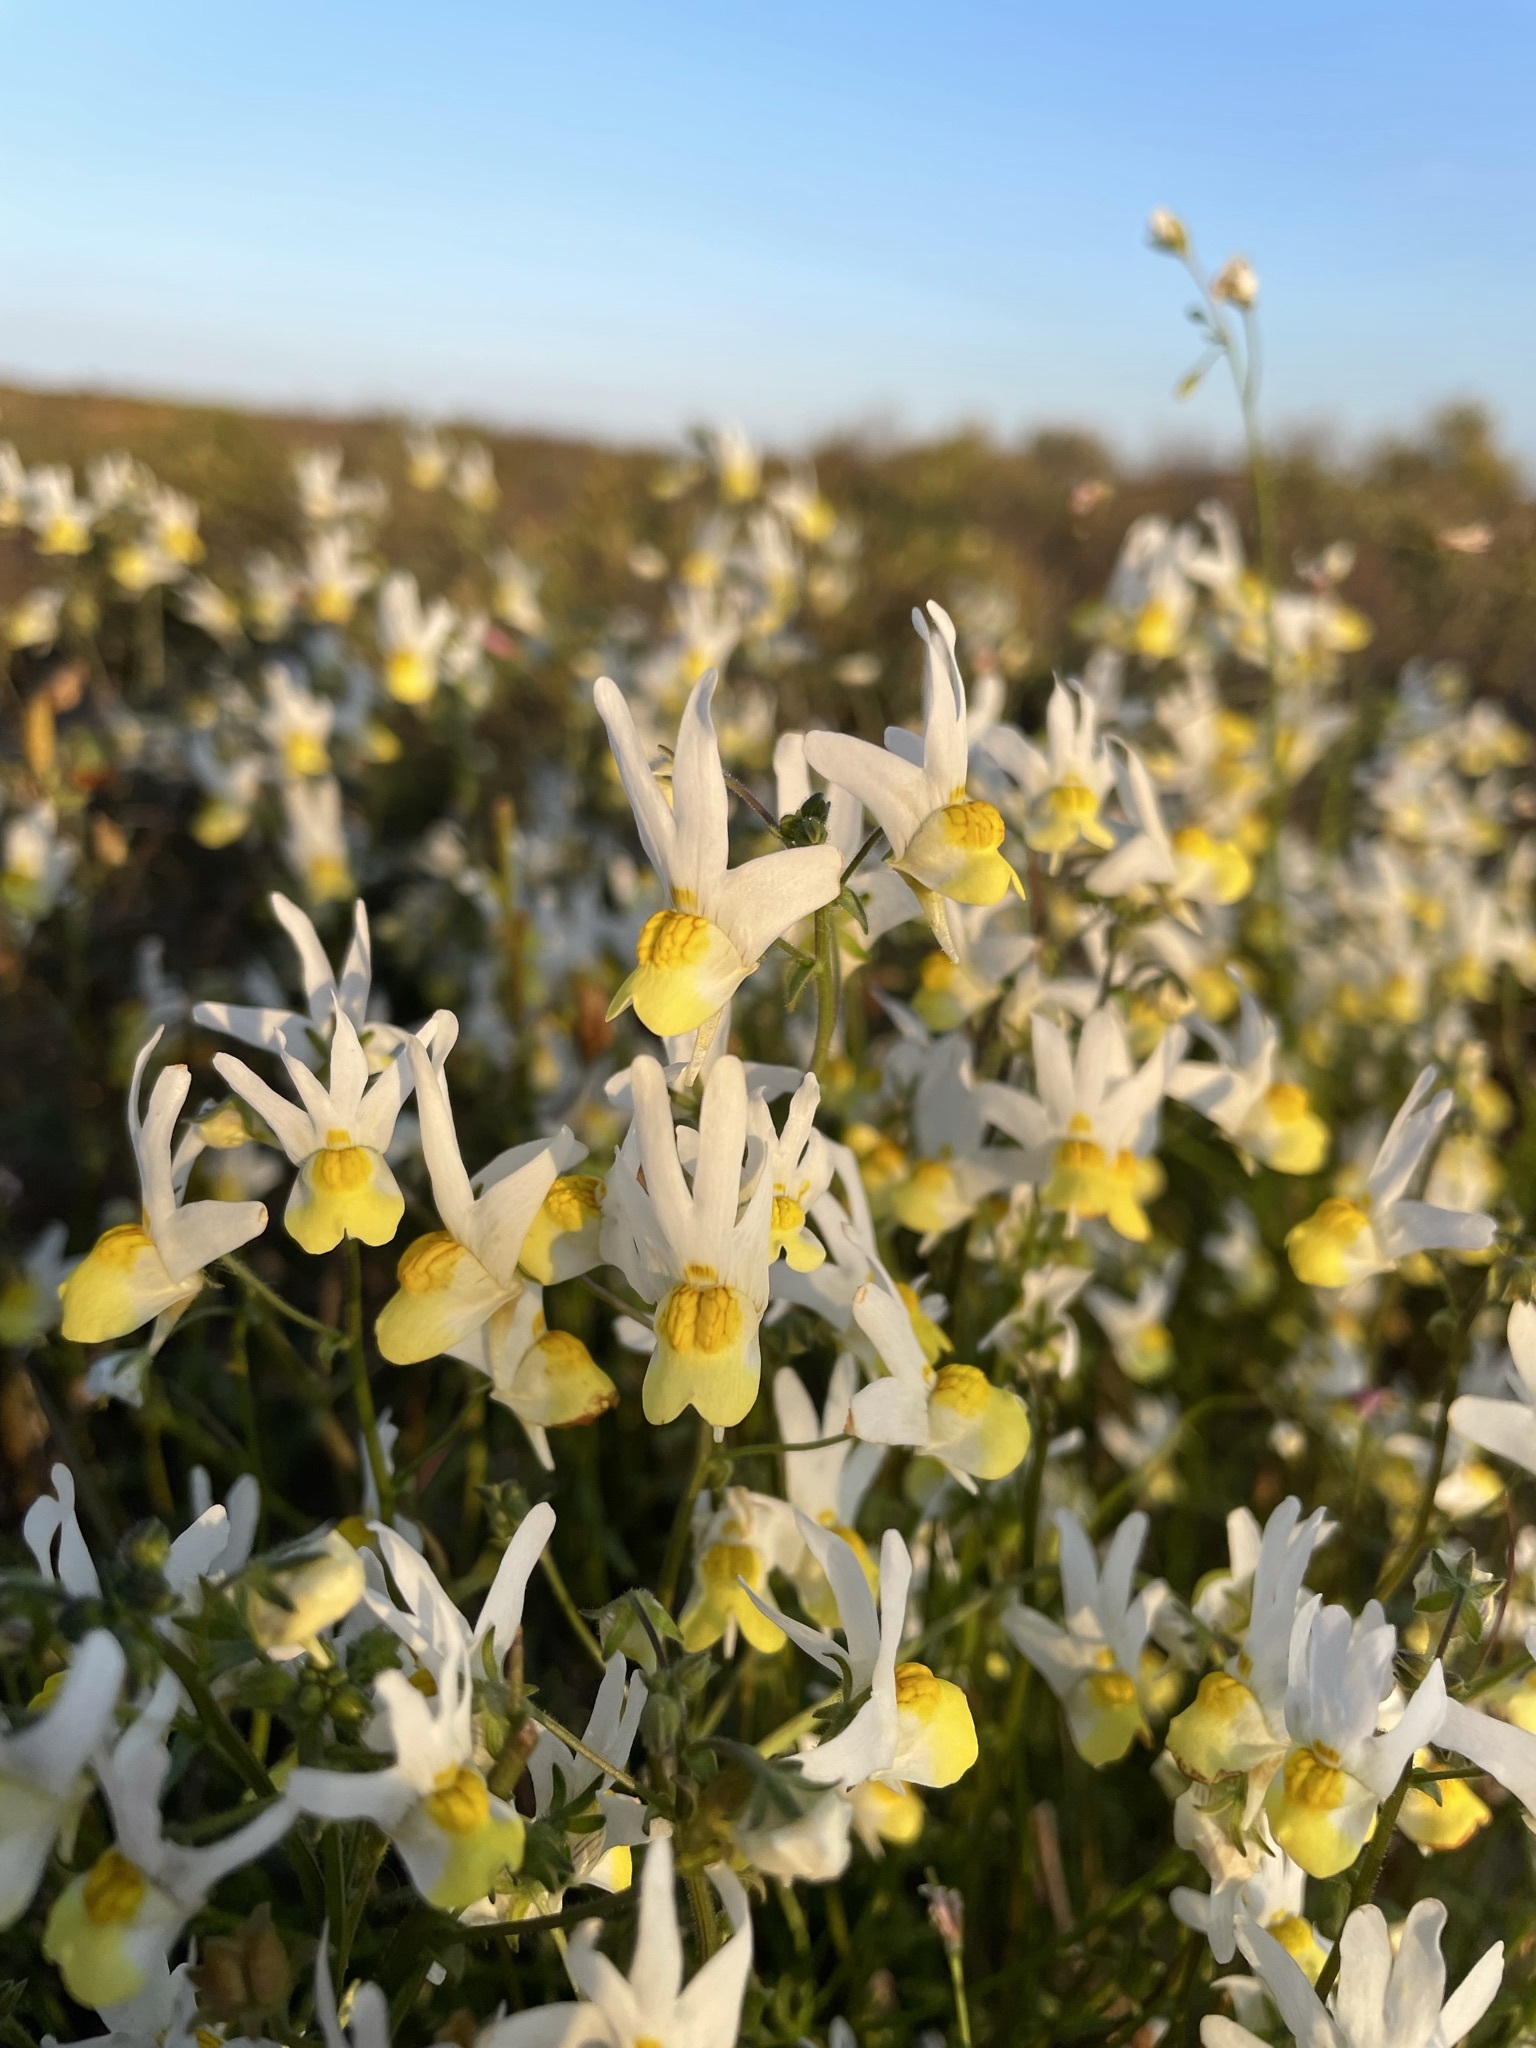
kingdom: Plantae
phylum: Tracheophyta
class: Magnoliopsida
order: Lamiales
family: Scrophulariaceae
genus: Nemesia
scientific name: Nemesia anisocarpa
